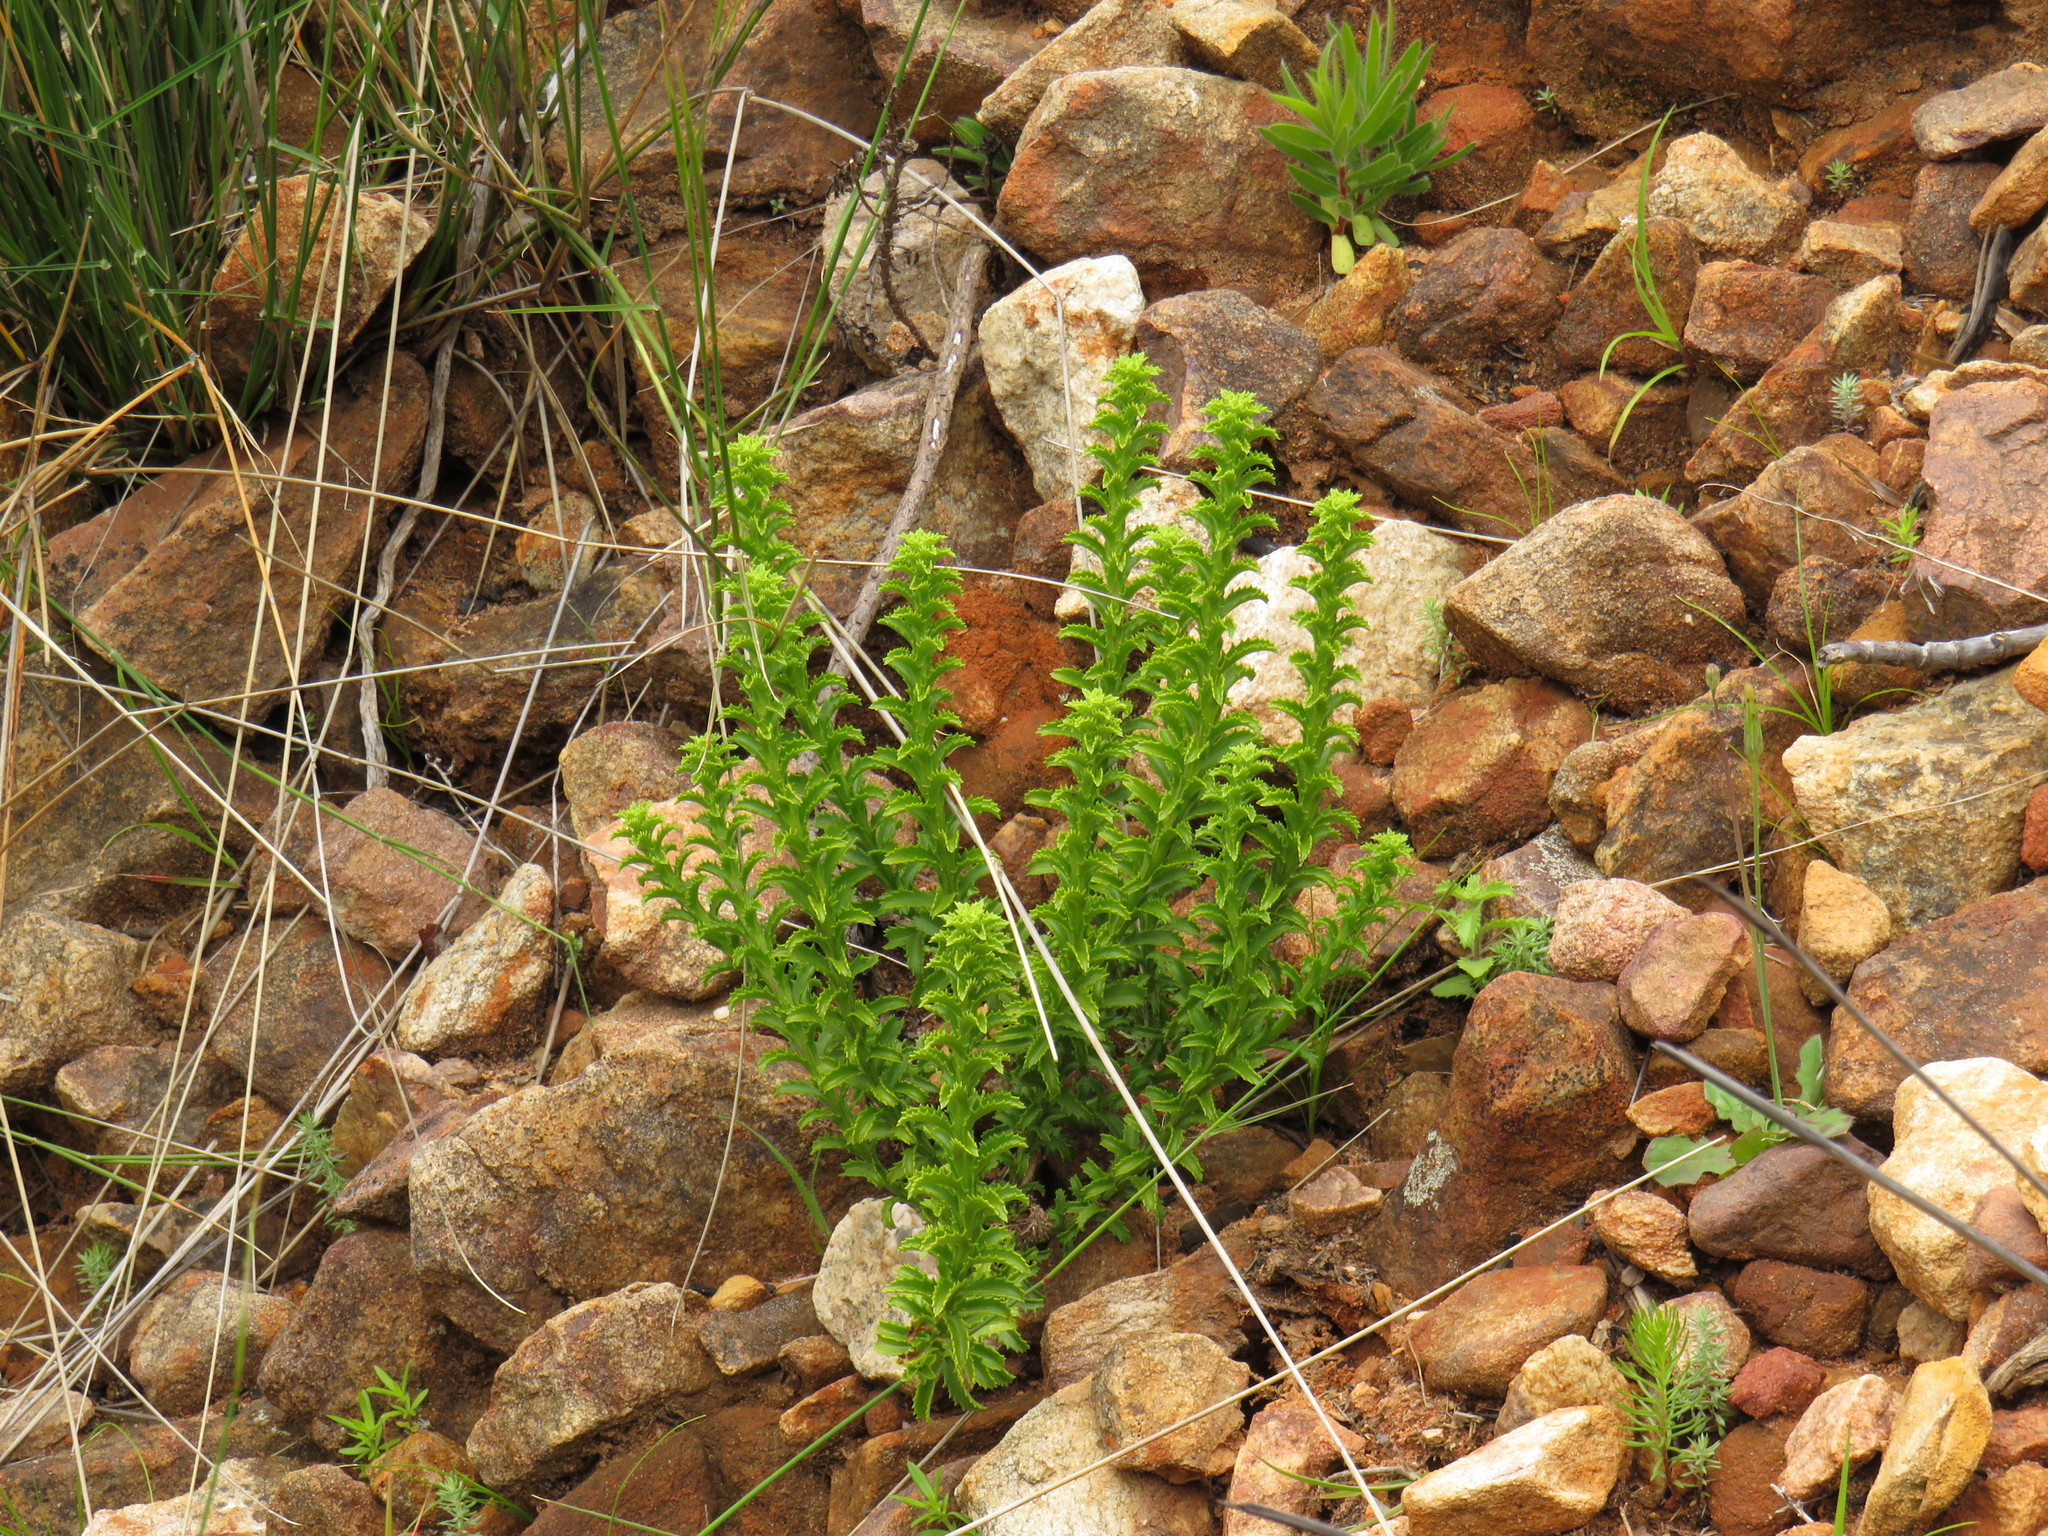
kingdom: Plantae
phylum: Tracheophyta
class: Magnoliopsida
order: Lamiales
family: Scrophulariaceae
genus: Pseudoselago
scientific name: Pseudoselago serrata
